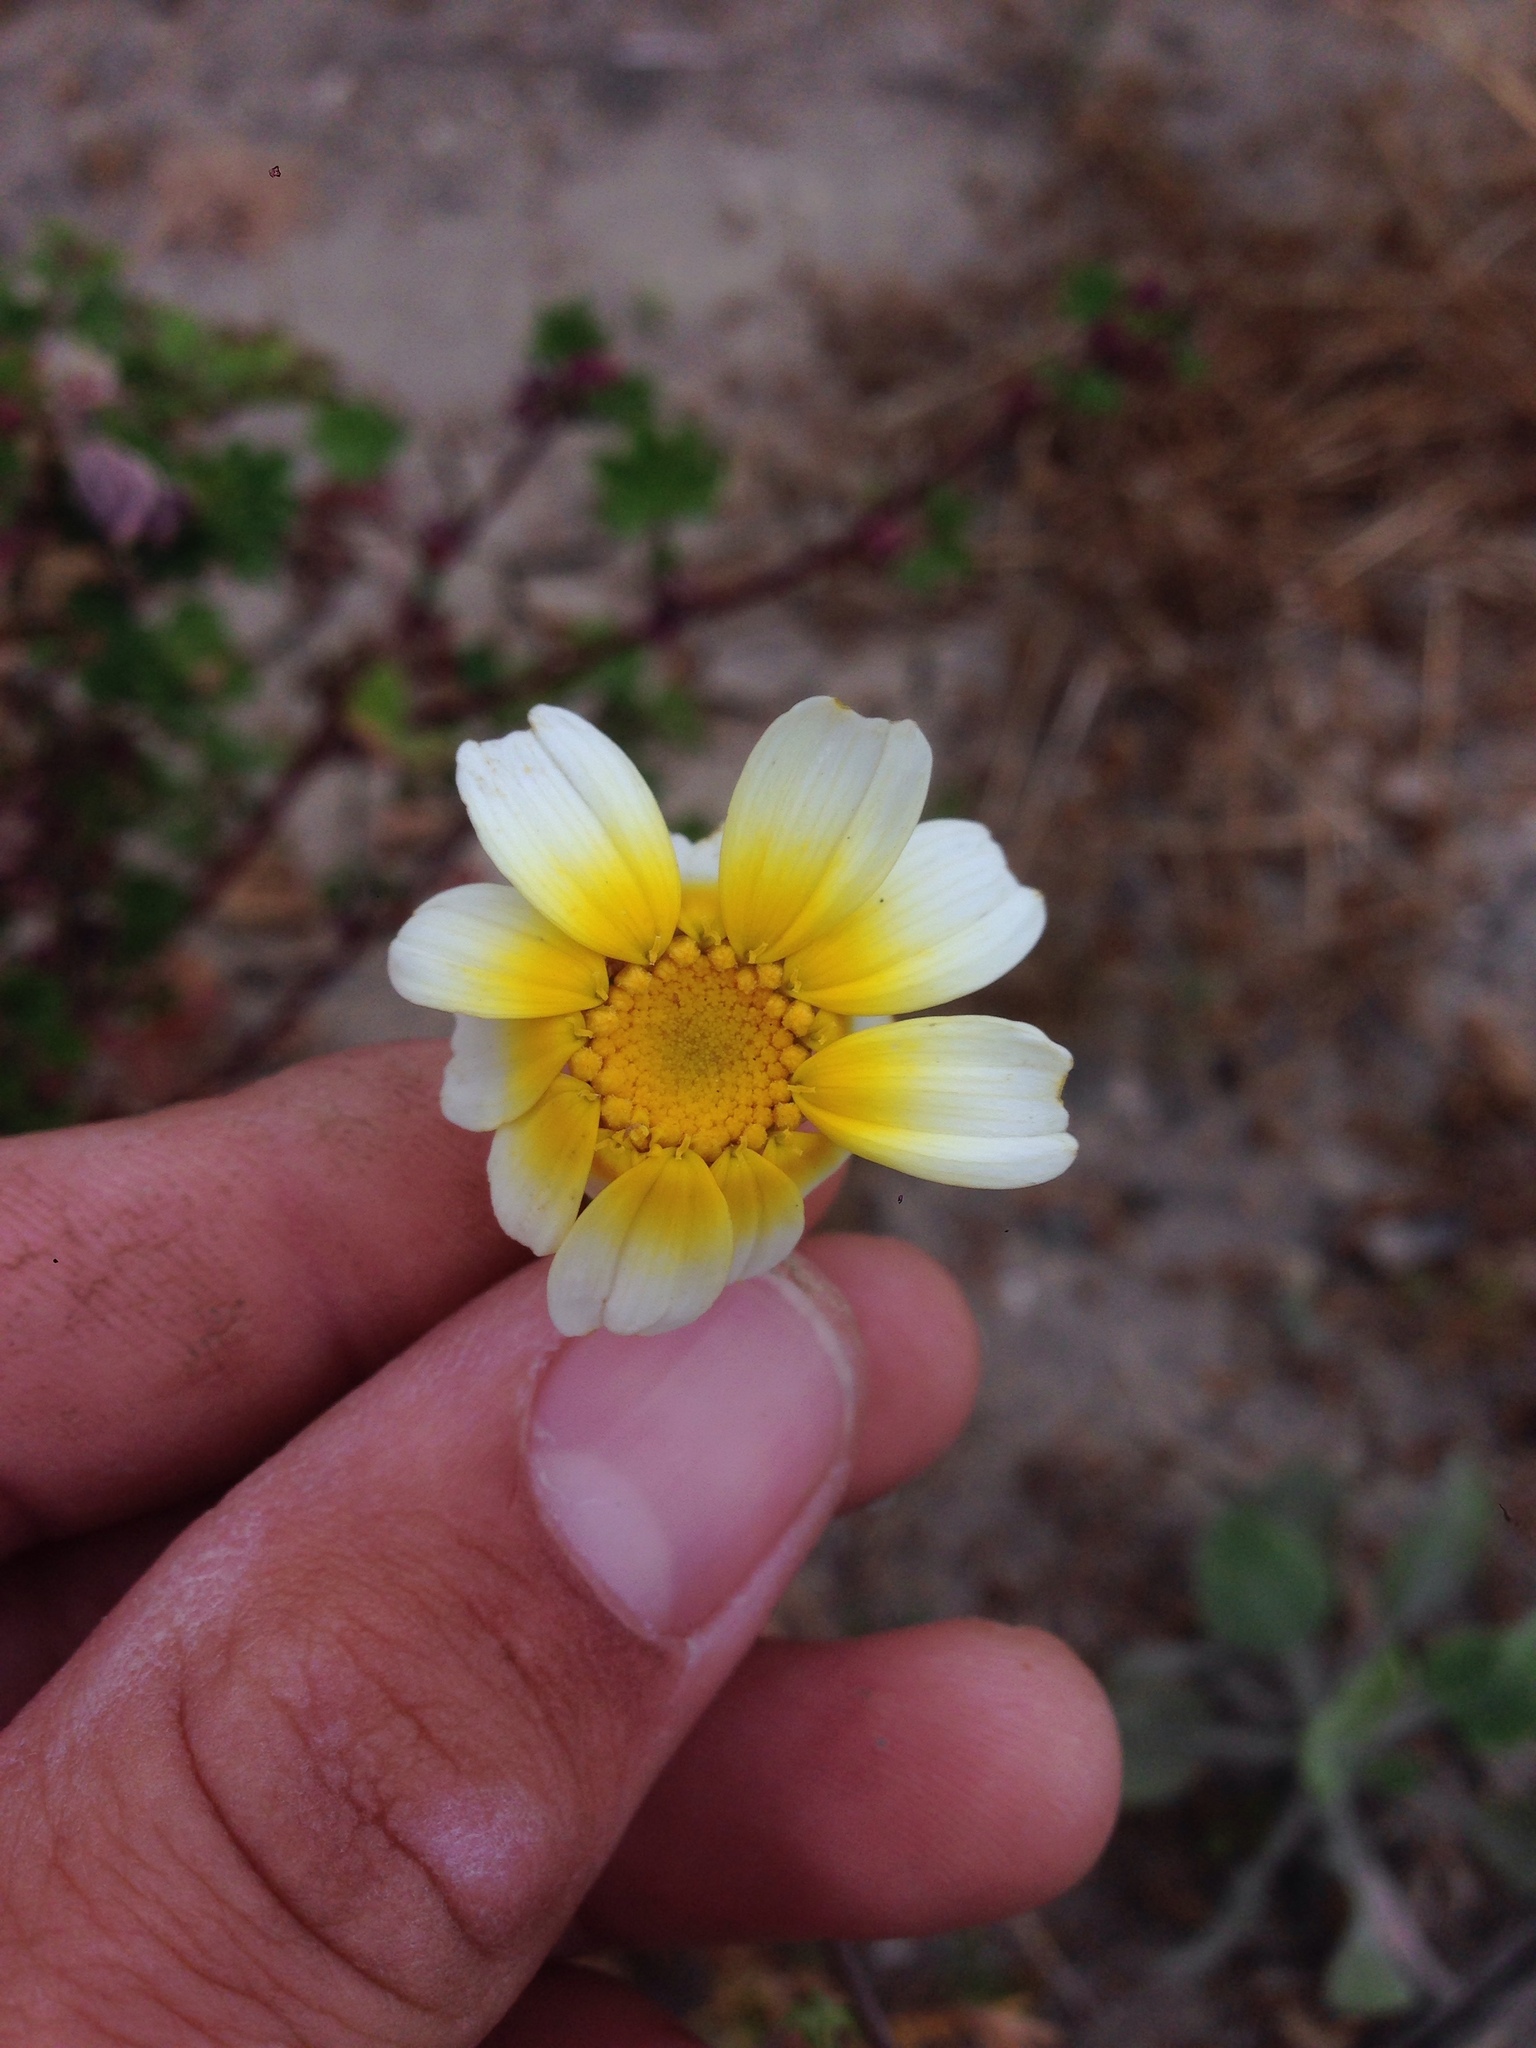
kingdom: Plantae
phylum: Tracheophyta
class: Magnoliopsida
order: Asterales
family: Asteraceae
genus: Glebionis
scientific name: Glebionis coronaria
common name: Crowndaisy
